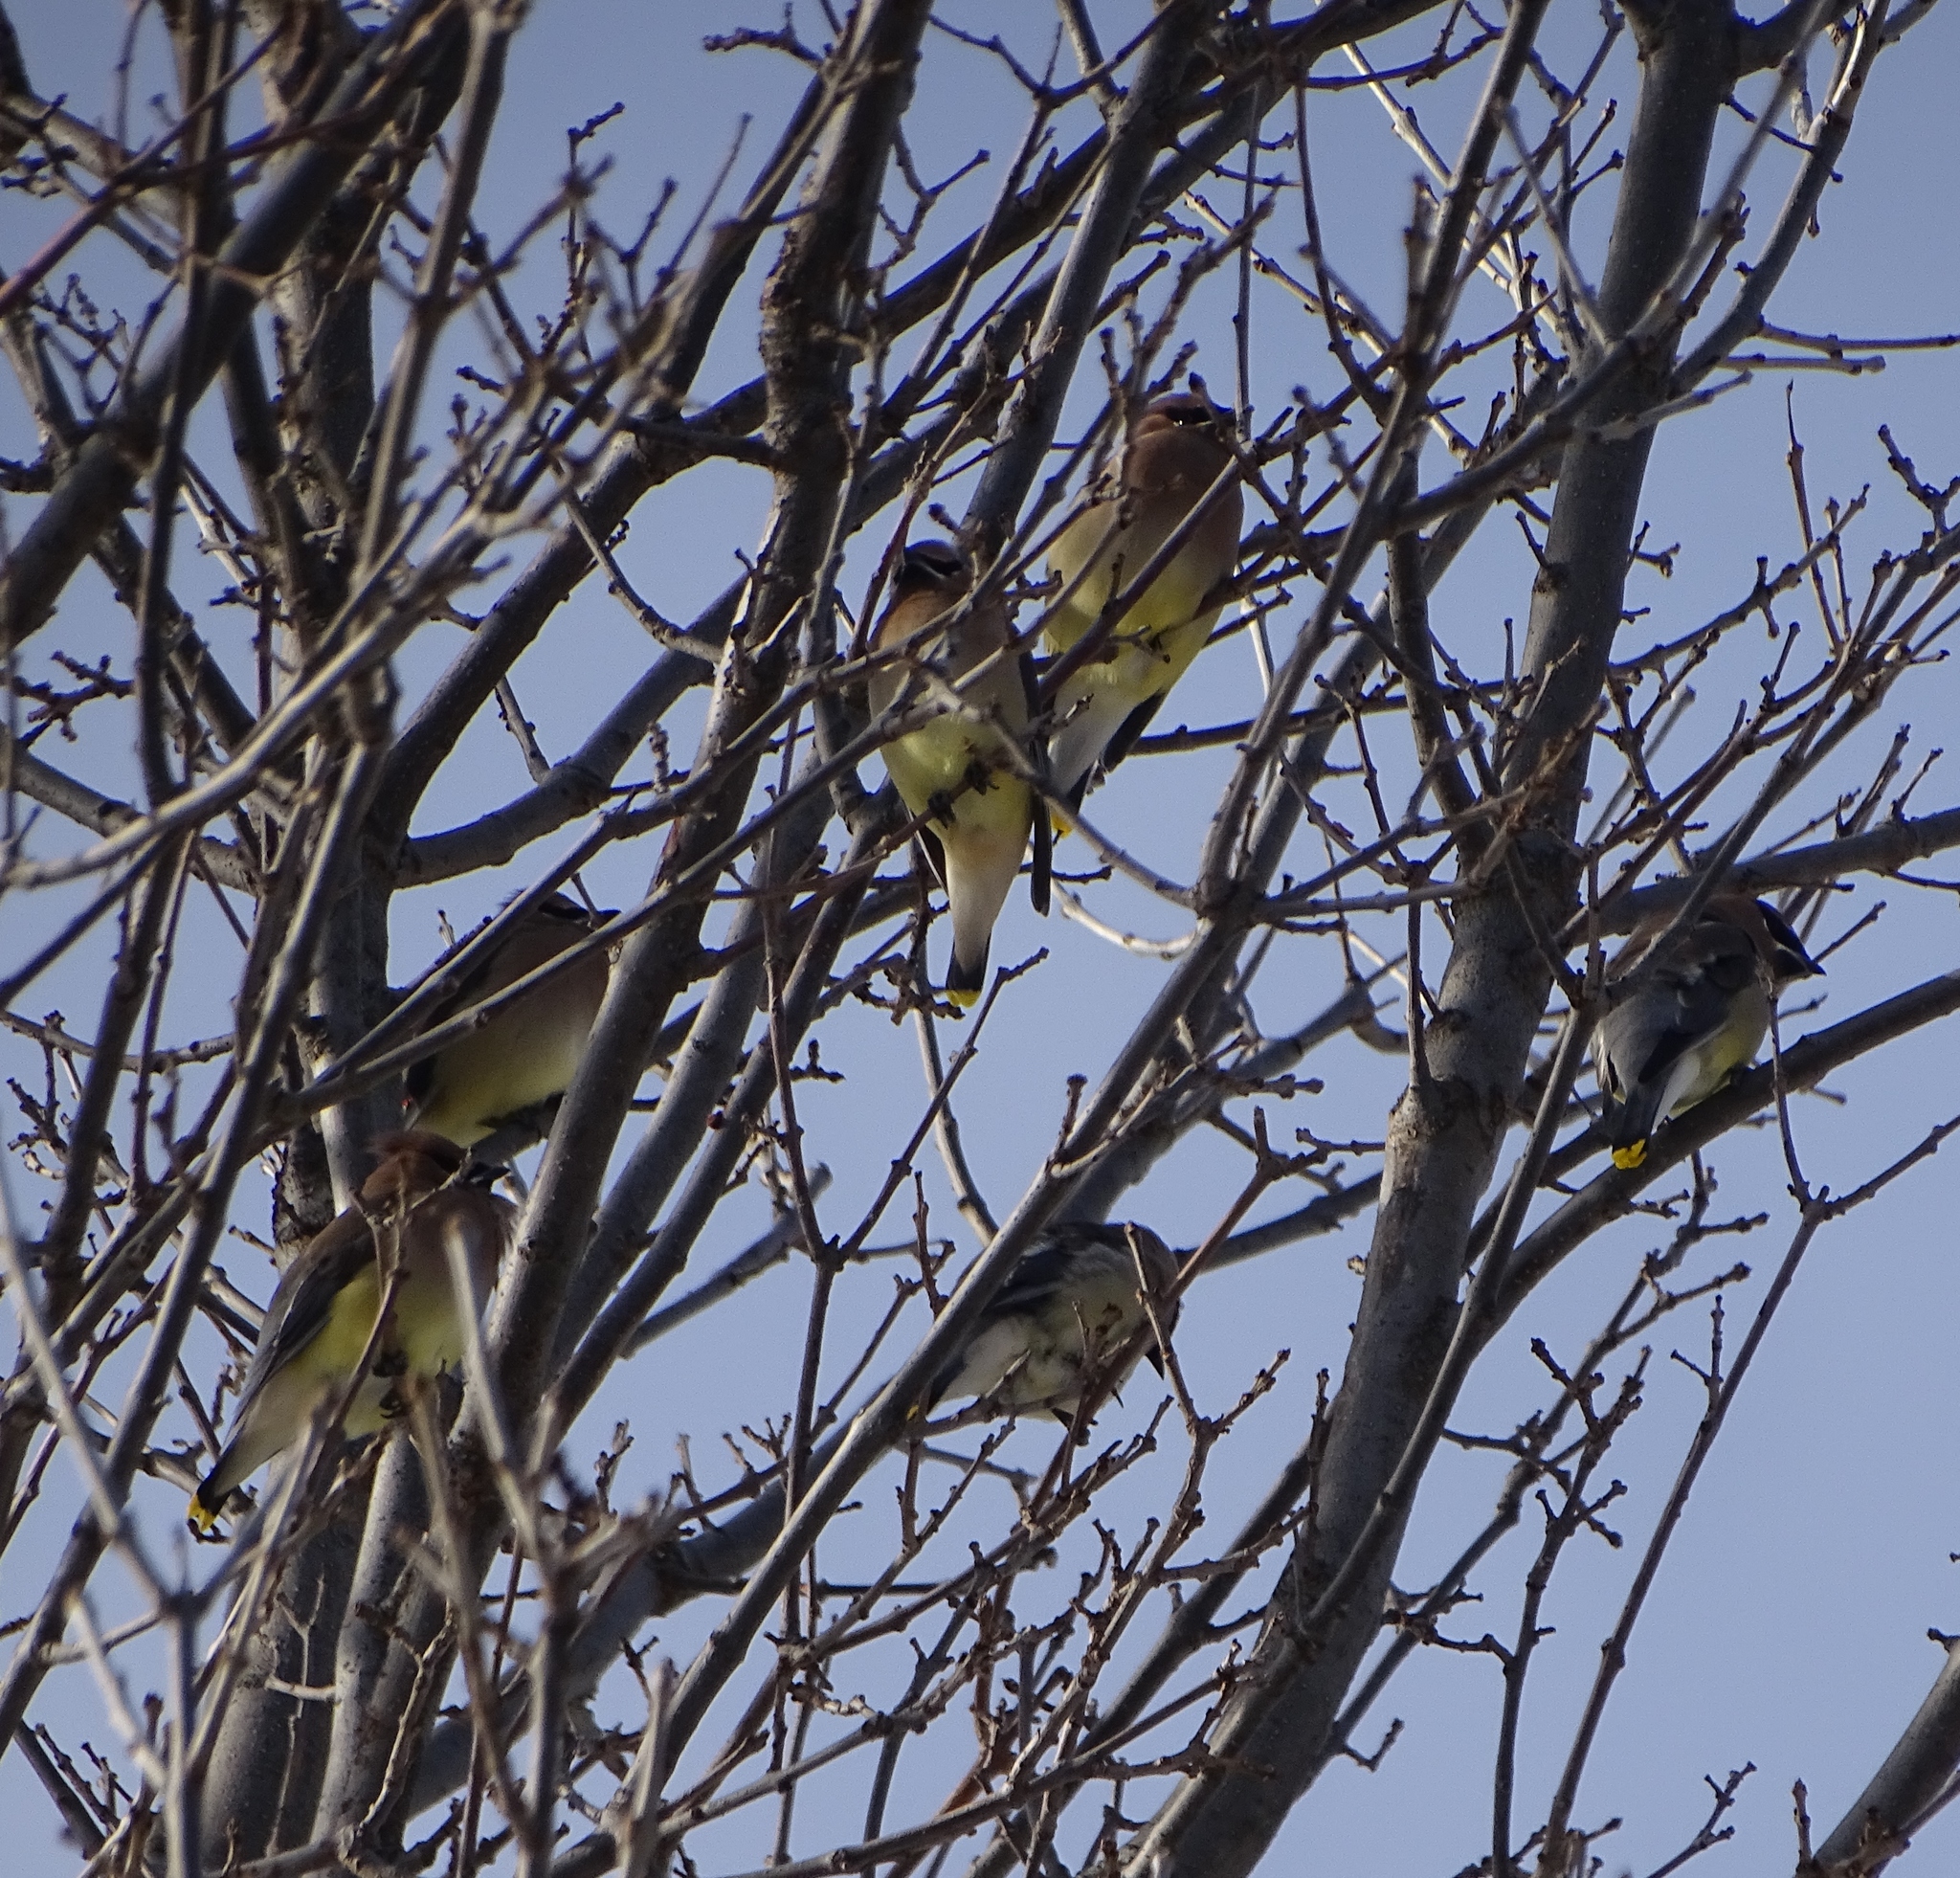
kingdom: Animalia
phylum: Chordata
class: Aves
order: Passeriformes
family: Bombycillidae
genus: Bombycilla
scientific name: Bombycilla cedrorum
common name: Cedar waxwing
